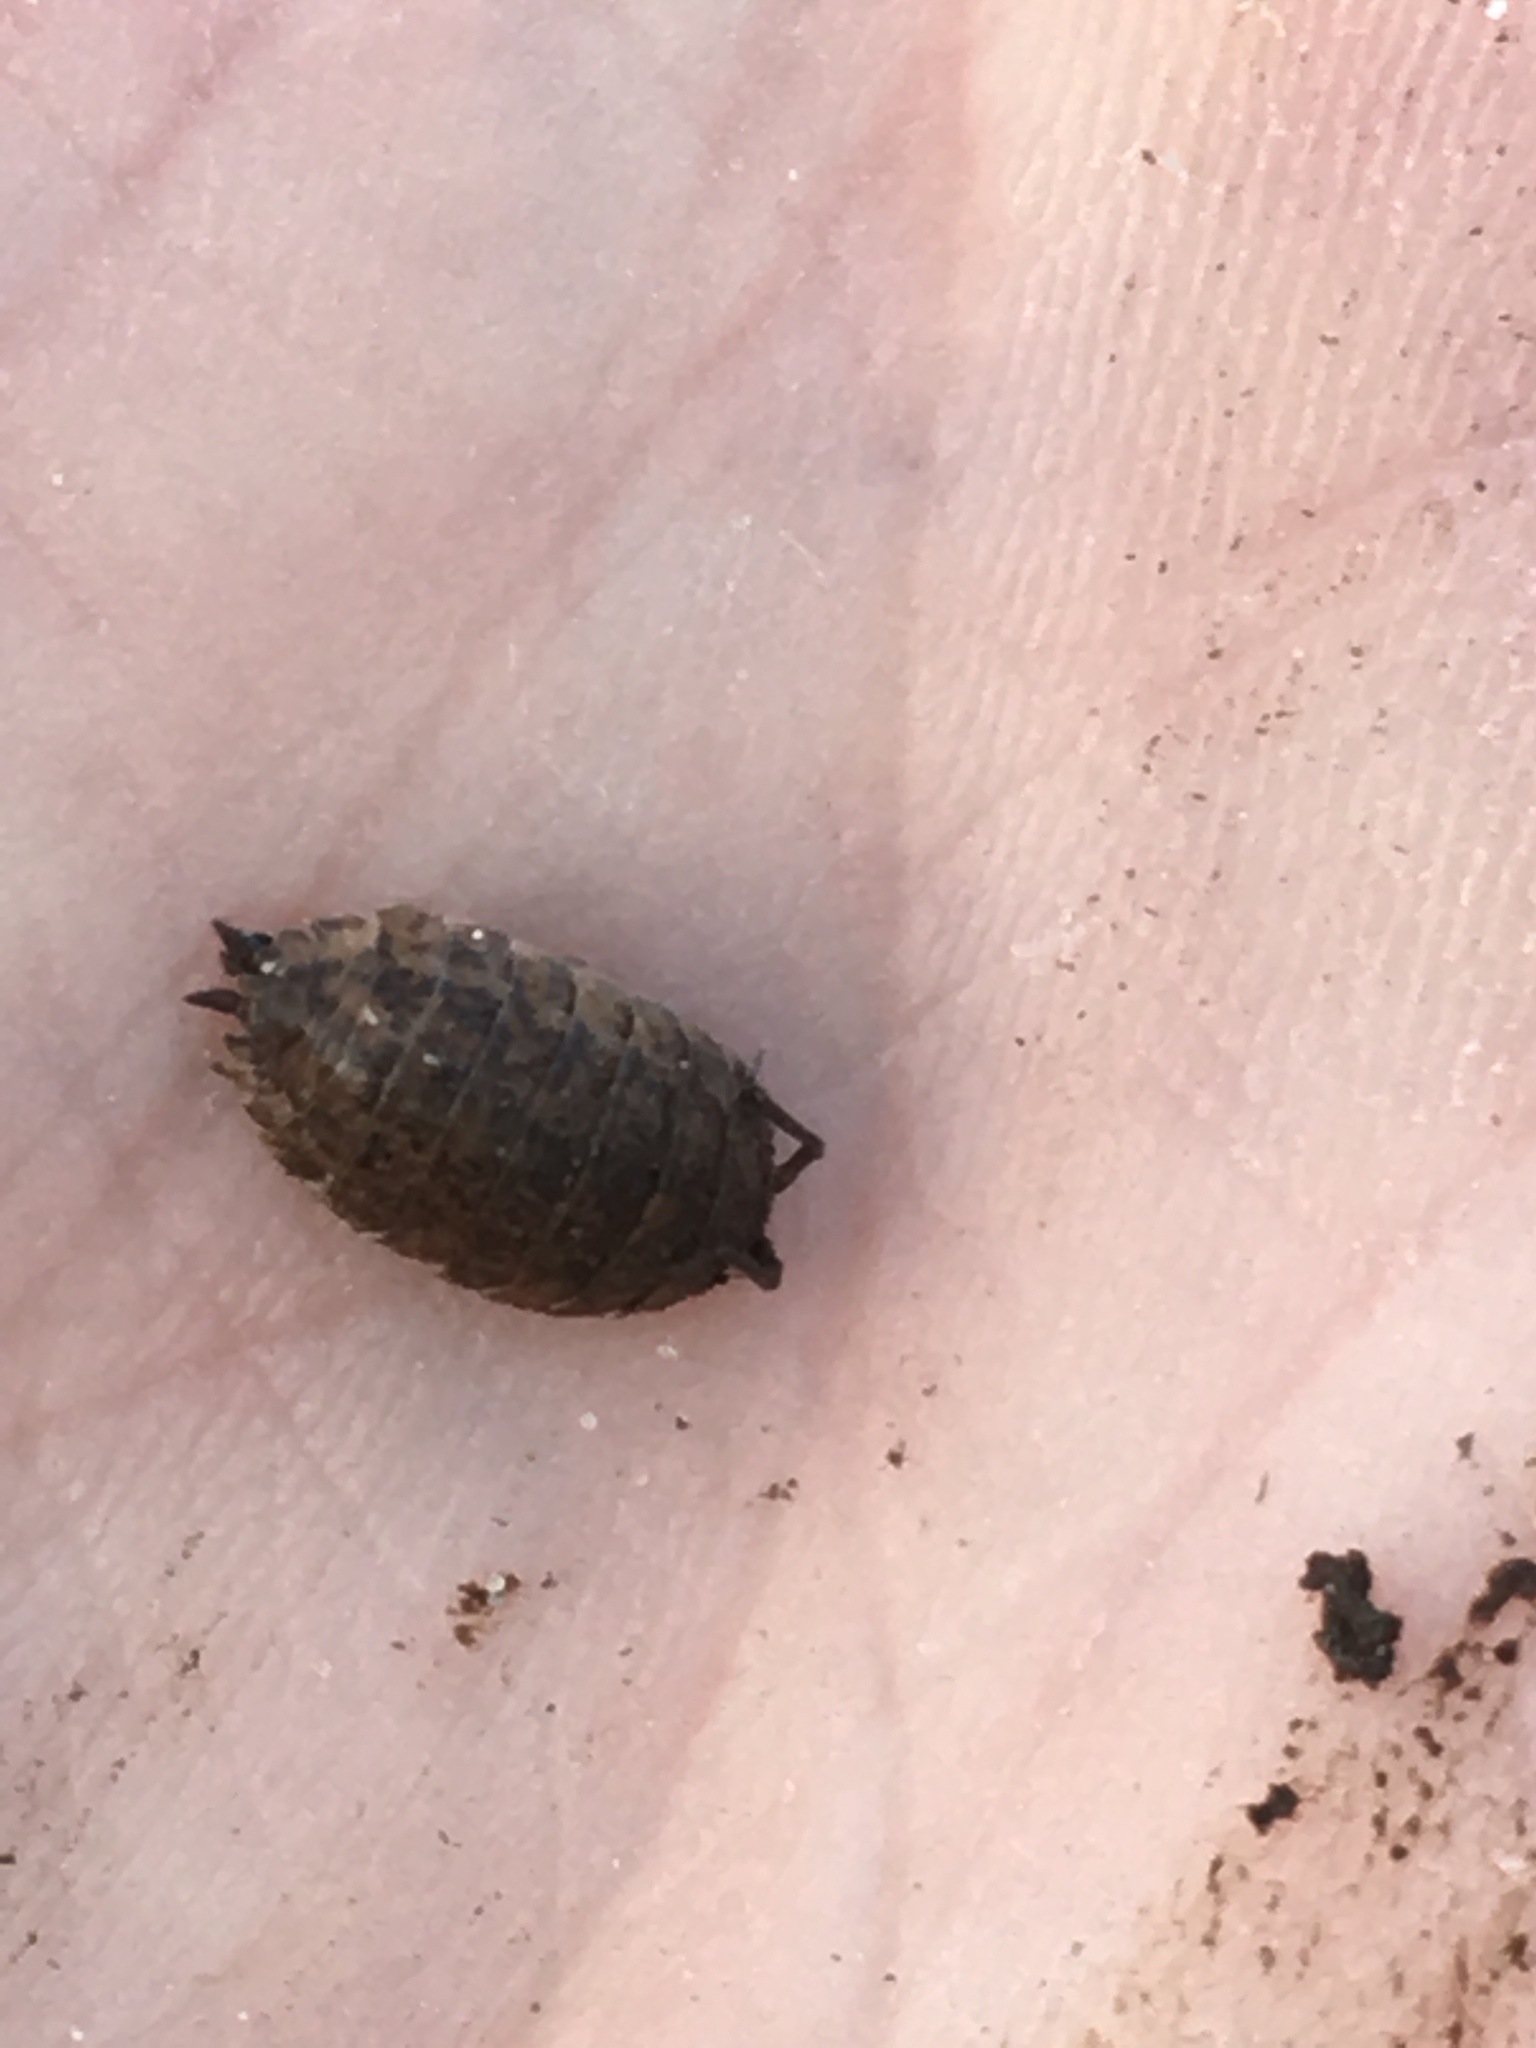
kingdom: Animalia
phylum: Arthropoda
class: Malacostraca
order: Isopoda
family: Trachelipodidae
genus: Trachelipus
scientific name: Trachelipus rathkii
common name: Isopod
